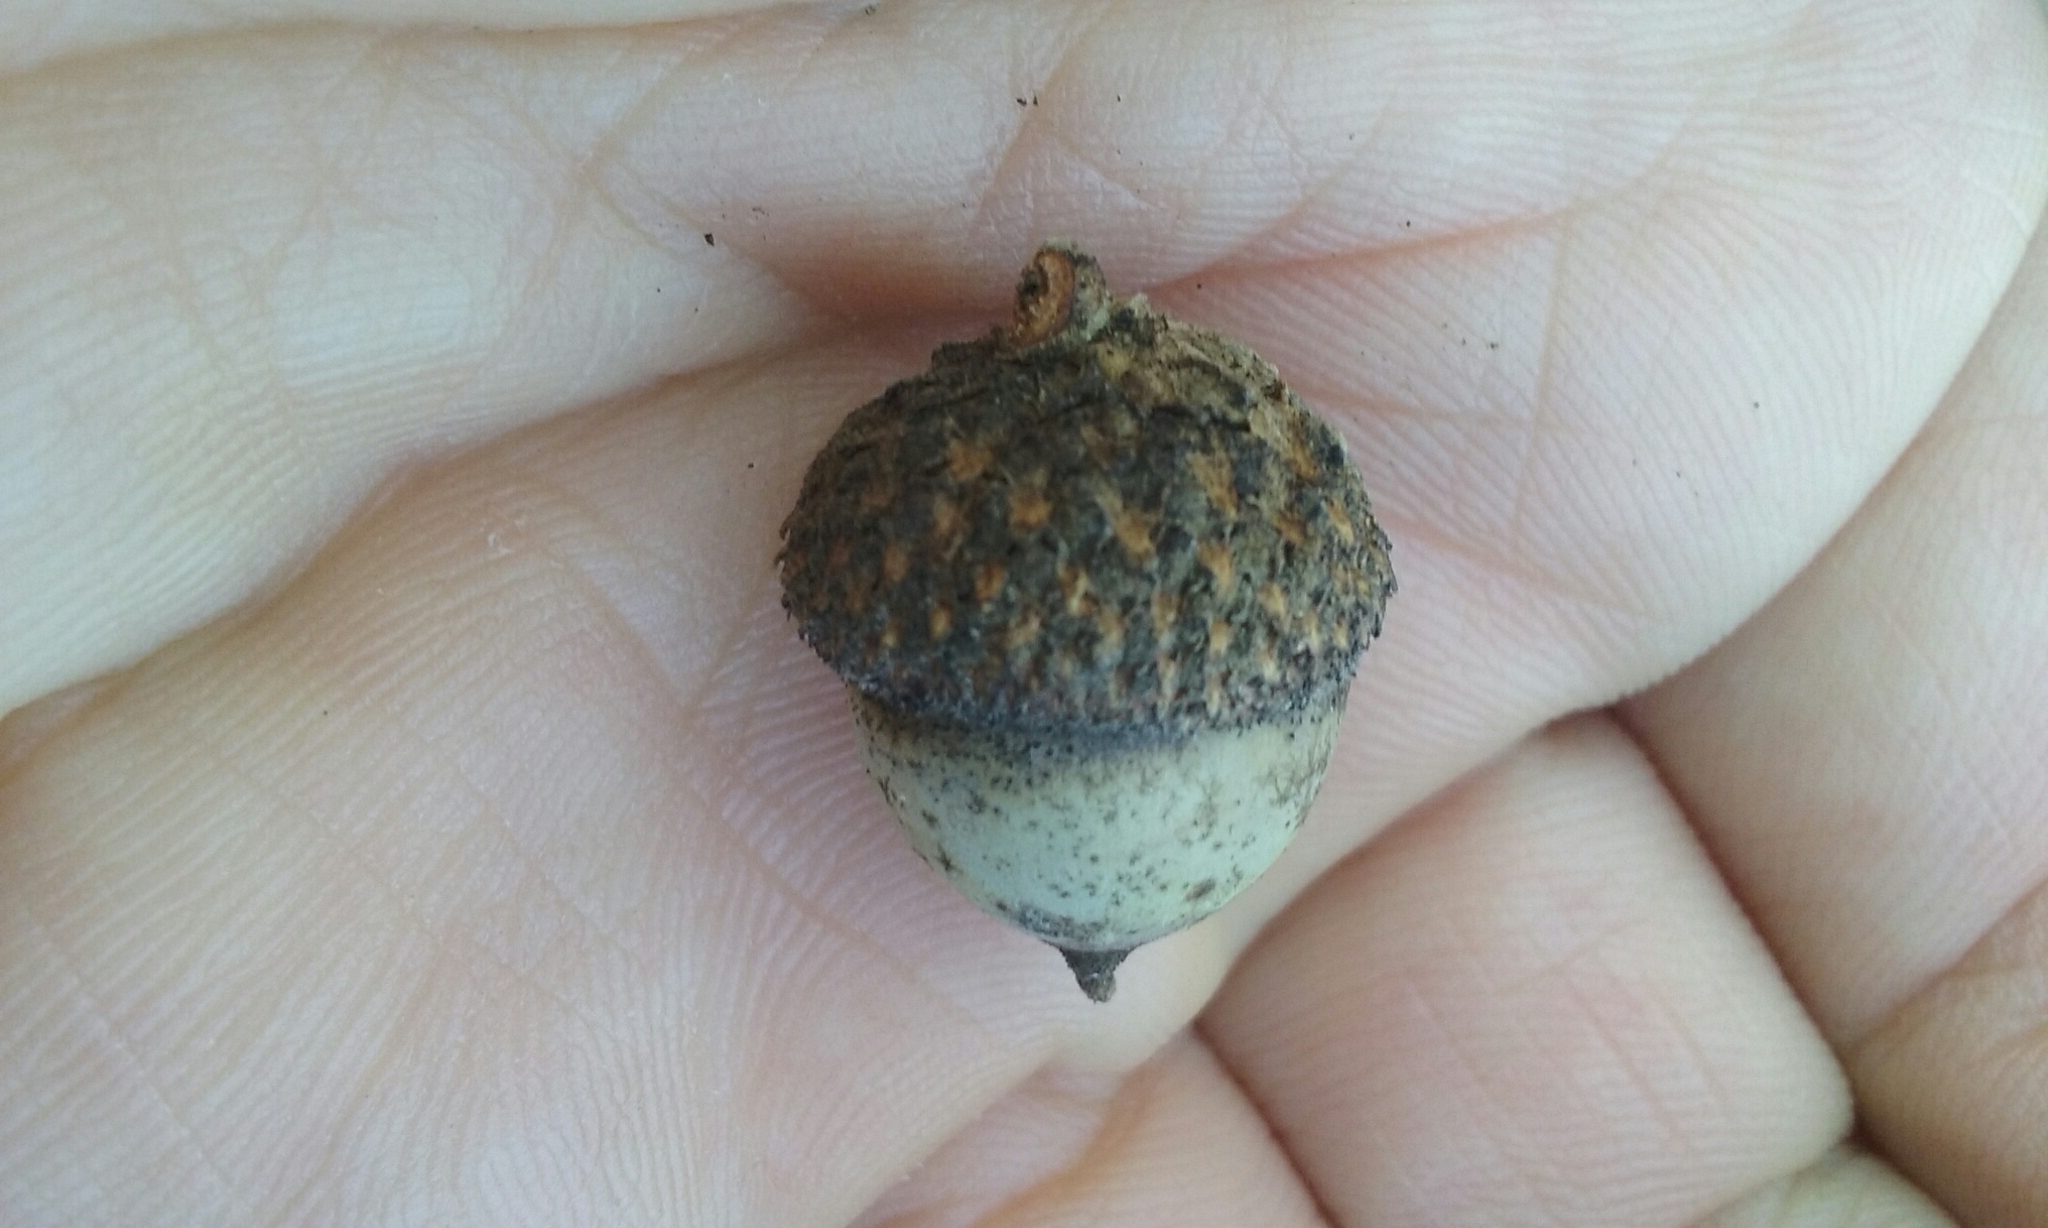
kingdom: Plantae
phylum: Tracheophyta
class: Magnoliopsida
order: Fagales
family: Fagaceae
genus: Quercus
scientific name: Quercus garryana
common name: Garry oak
